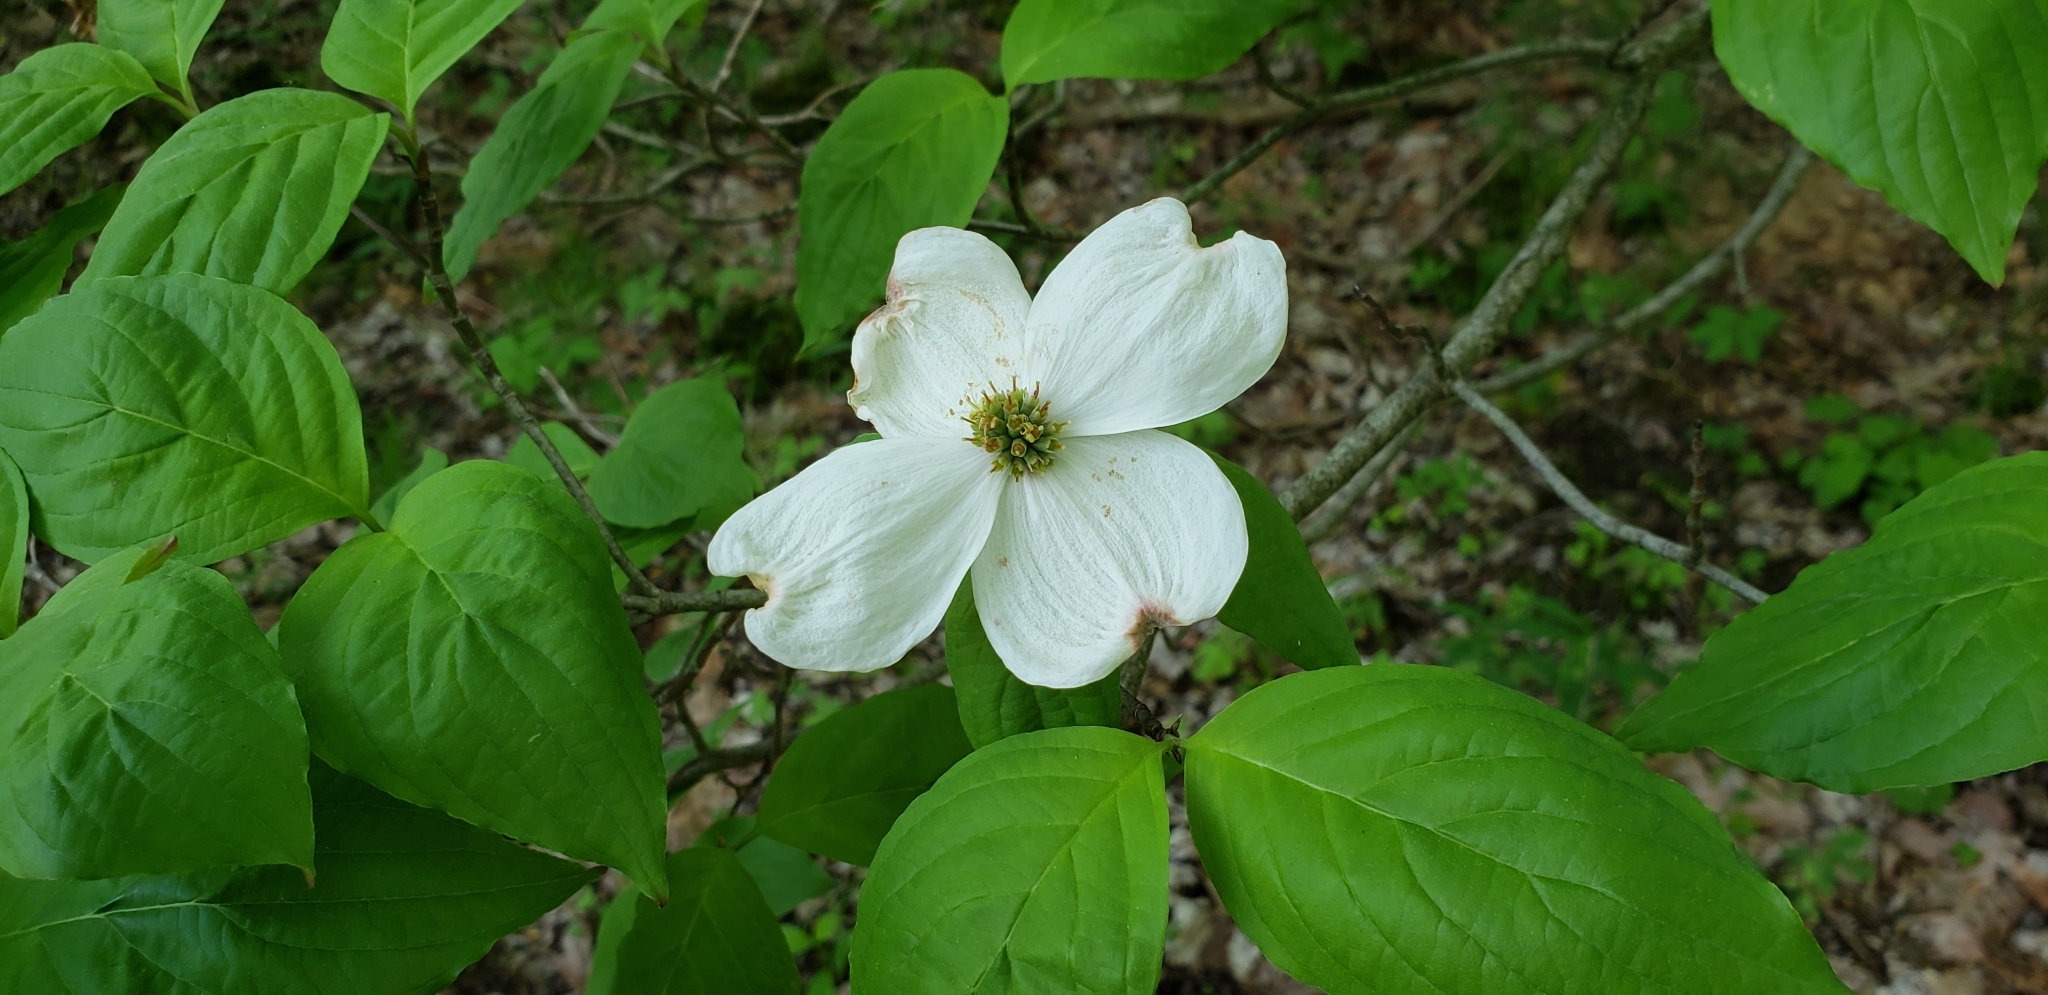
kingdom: Plantae
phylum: Tracheophyta
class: Magnoliopsida
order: Cornales
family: Cornaceae
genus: Cornus
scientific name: Cornus florida
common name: Flowering dogwood
